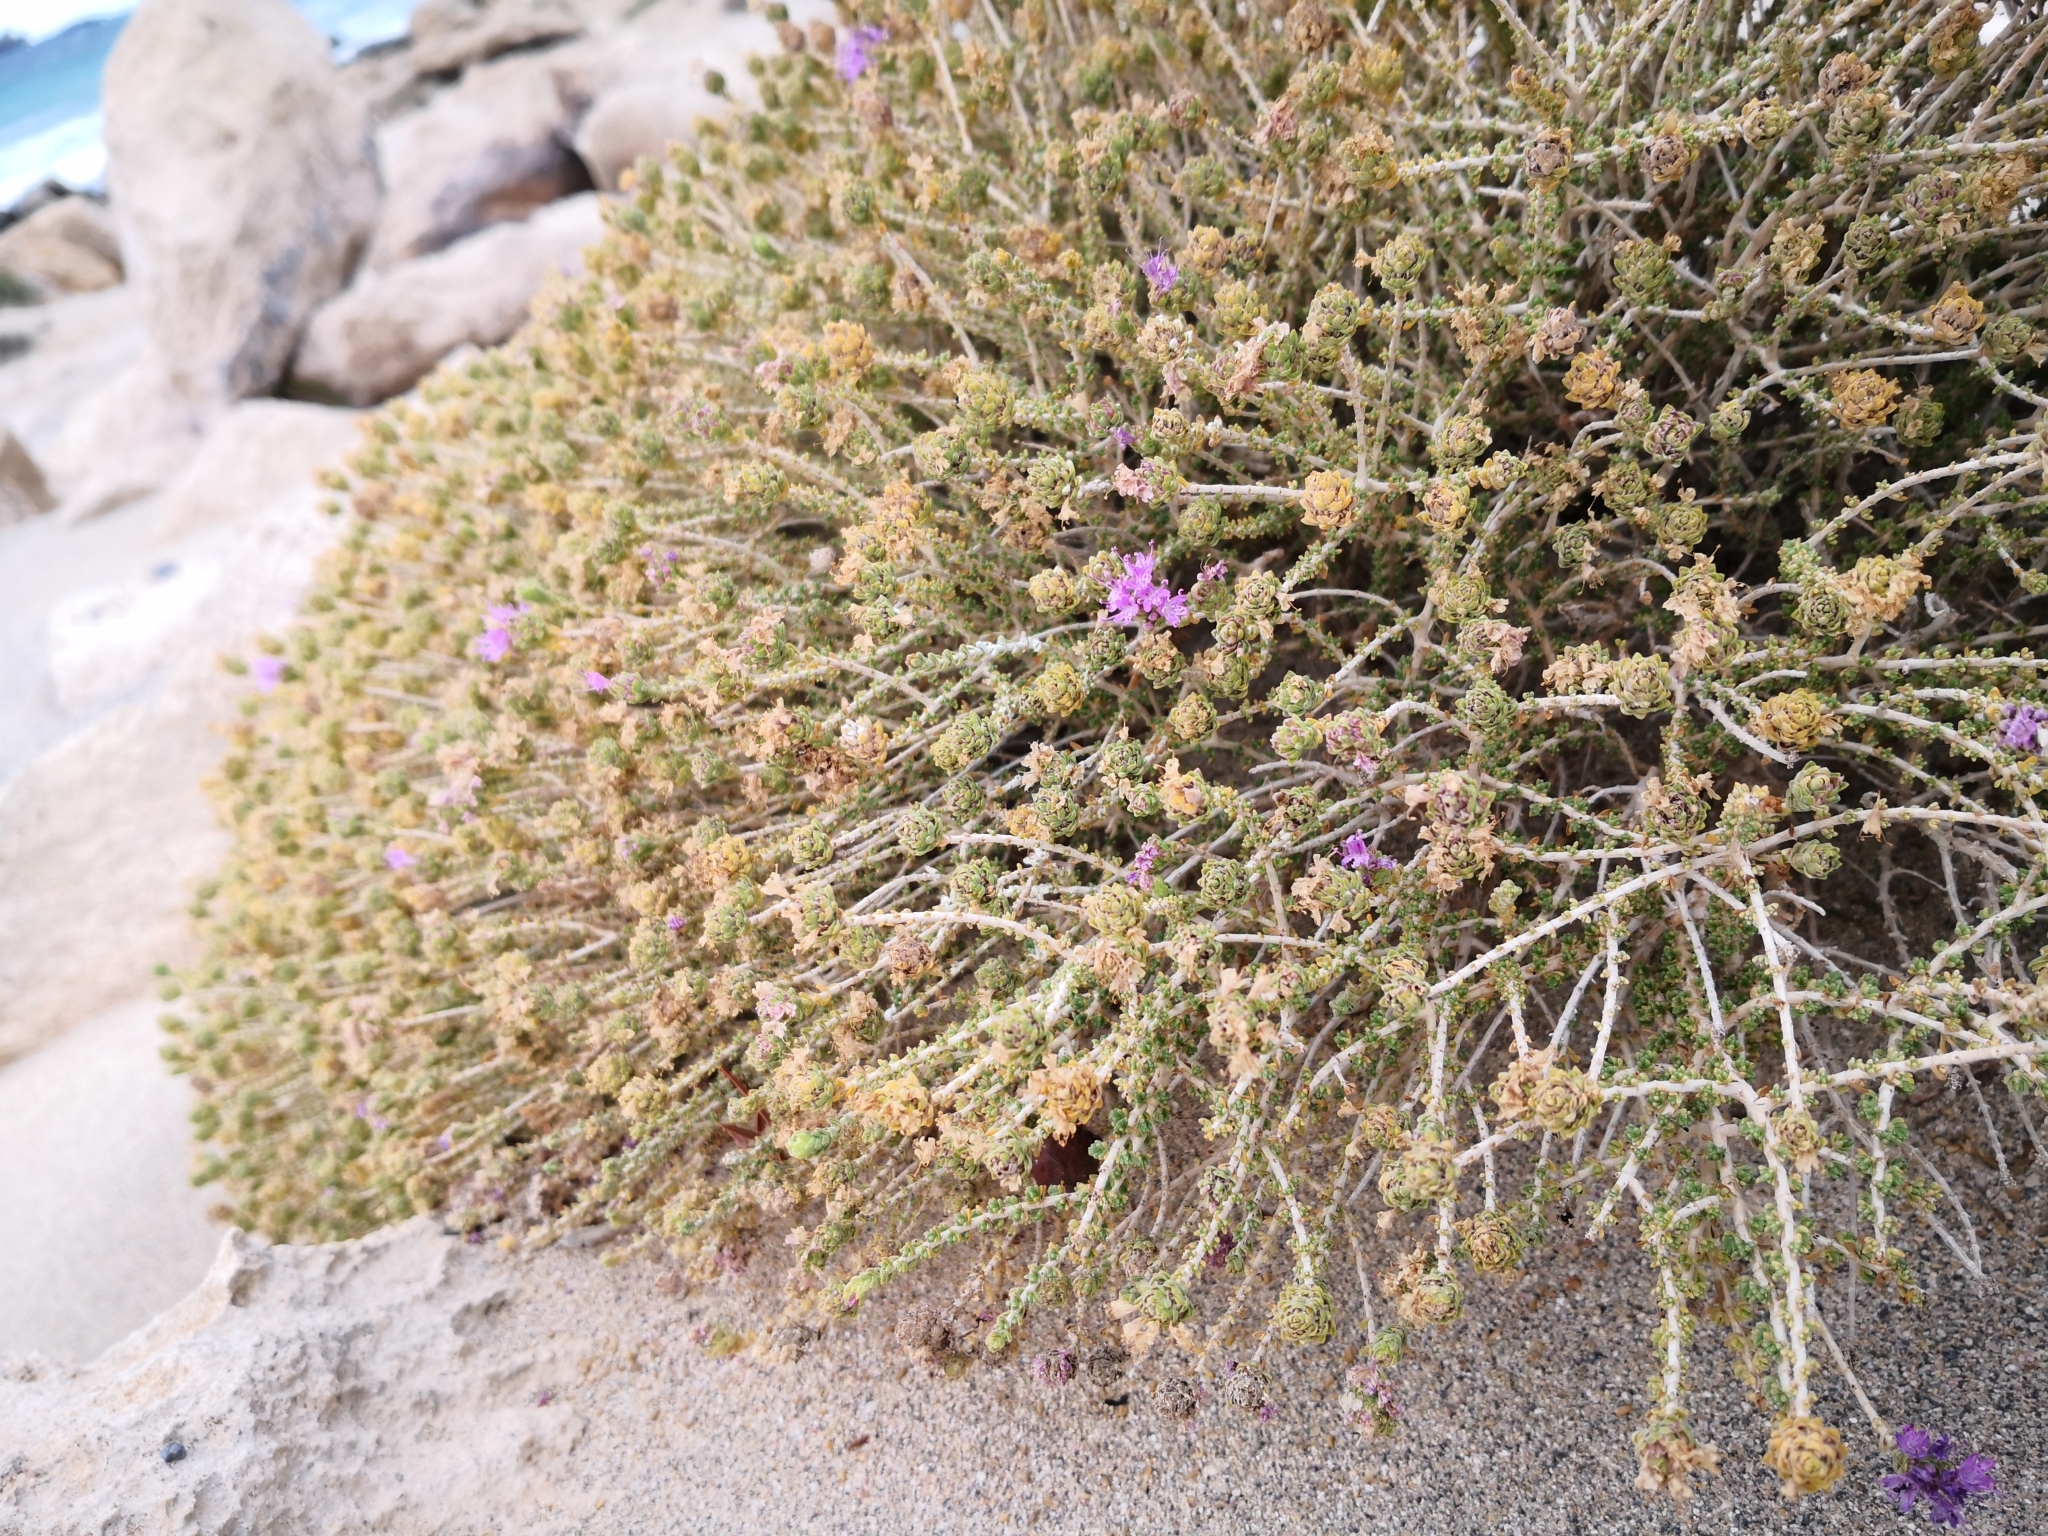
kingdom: Plantae
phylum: Tracheophyta
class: Magnoliopsida
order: Lamiales
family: Lamiaceae
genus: Thymbra
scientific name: Thymbra capitata
